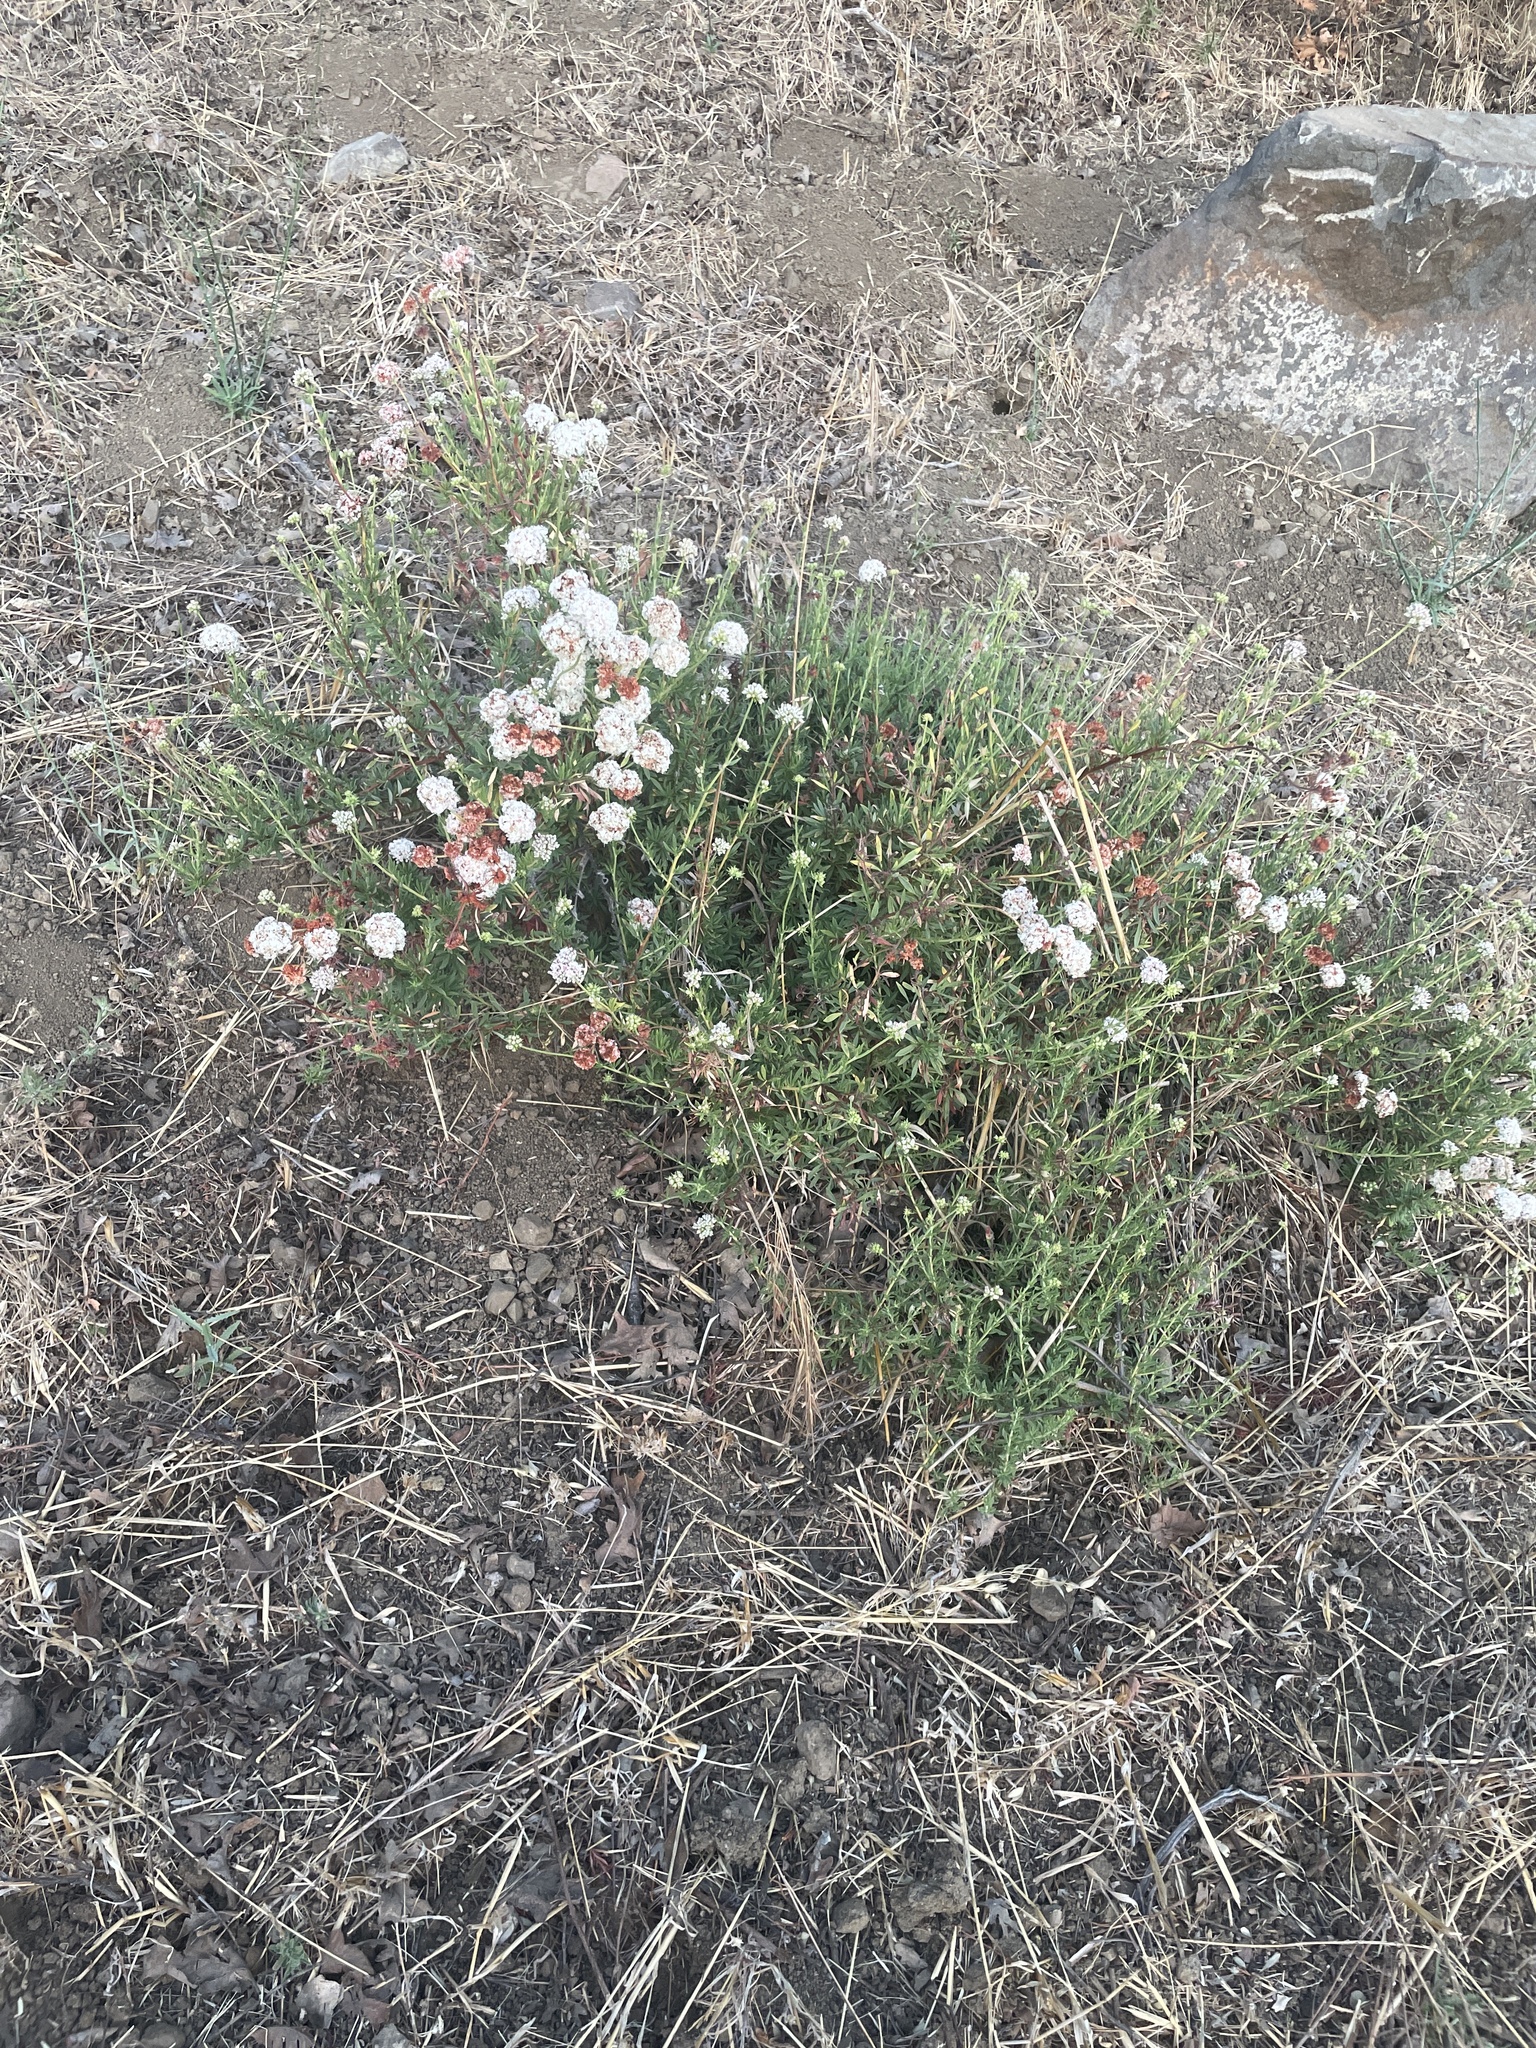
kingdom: Plantae
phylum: Tracheophyta
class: Magnoliopsida
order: Caryophyllales
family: Polygonaceae
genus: Eriogonum
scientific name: Eriogonum fasciculatum
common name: California wild buckwheat
